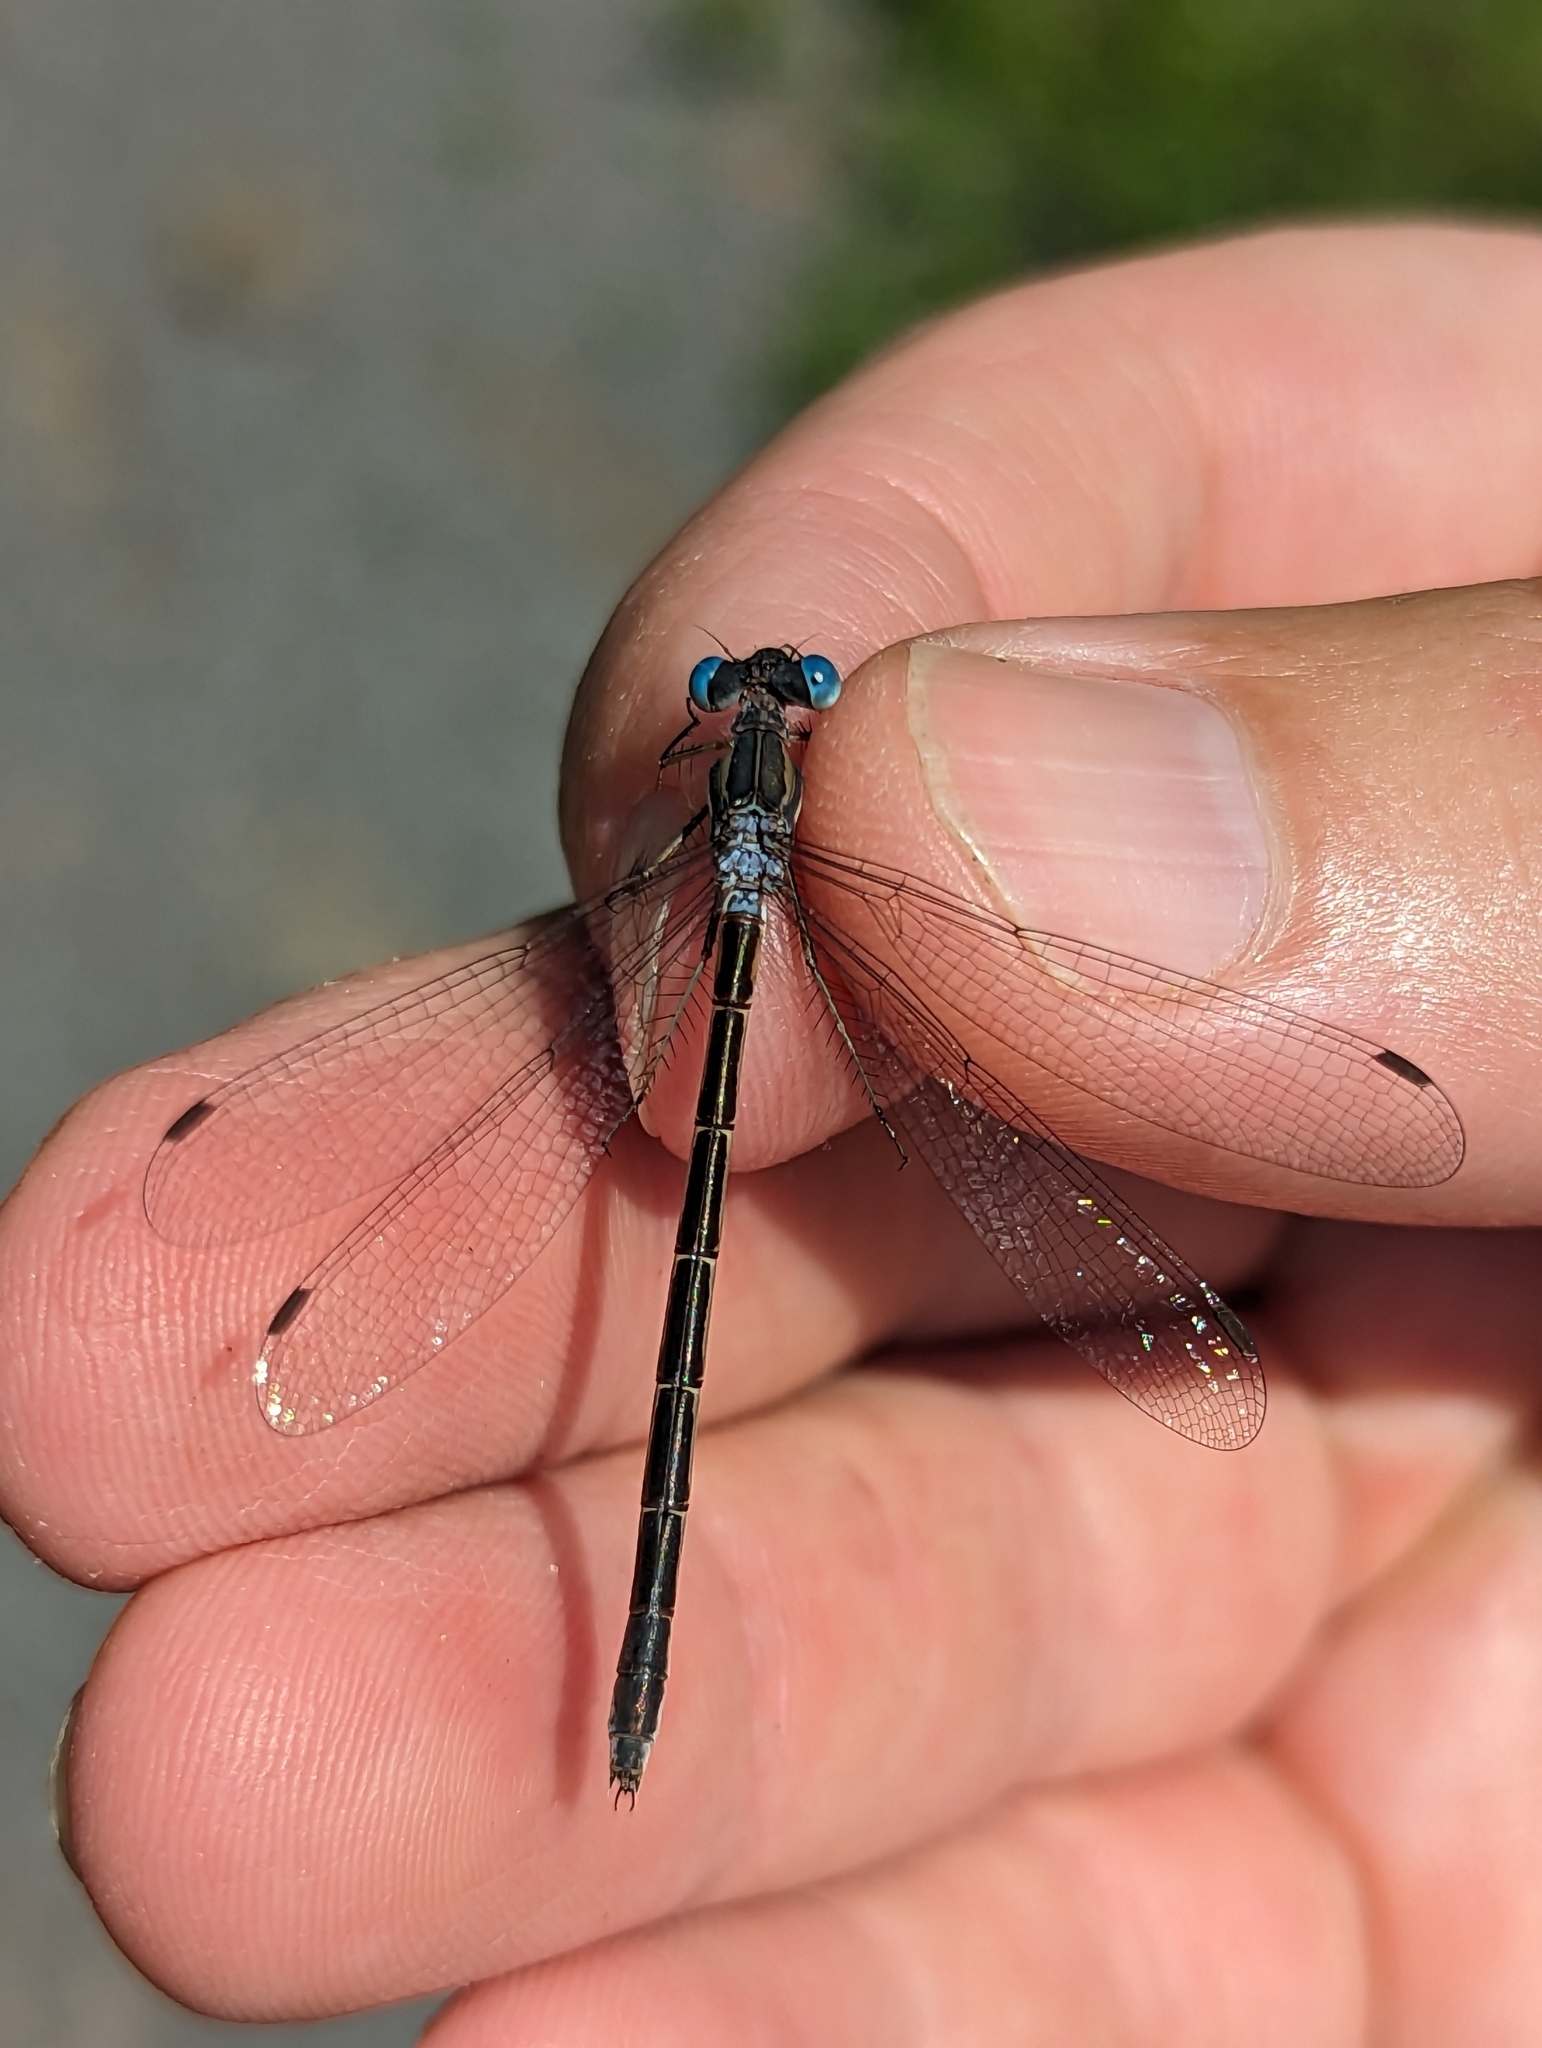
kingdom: Animalia
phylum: Arthropoda
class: Insecta
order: Odonata
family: Lestidae
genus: Lestes
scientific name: Lestes forcipatus
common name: Sweetflag spreadwing
